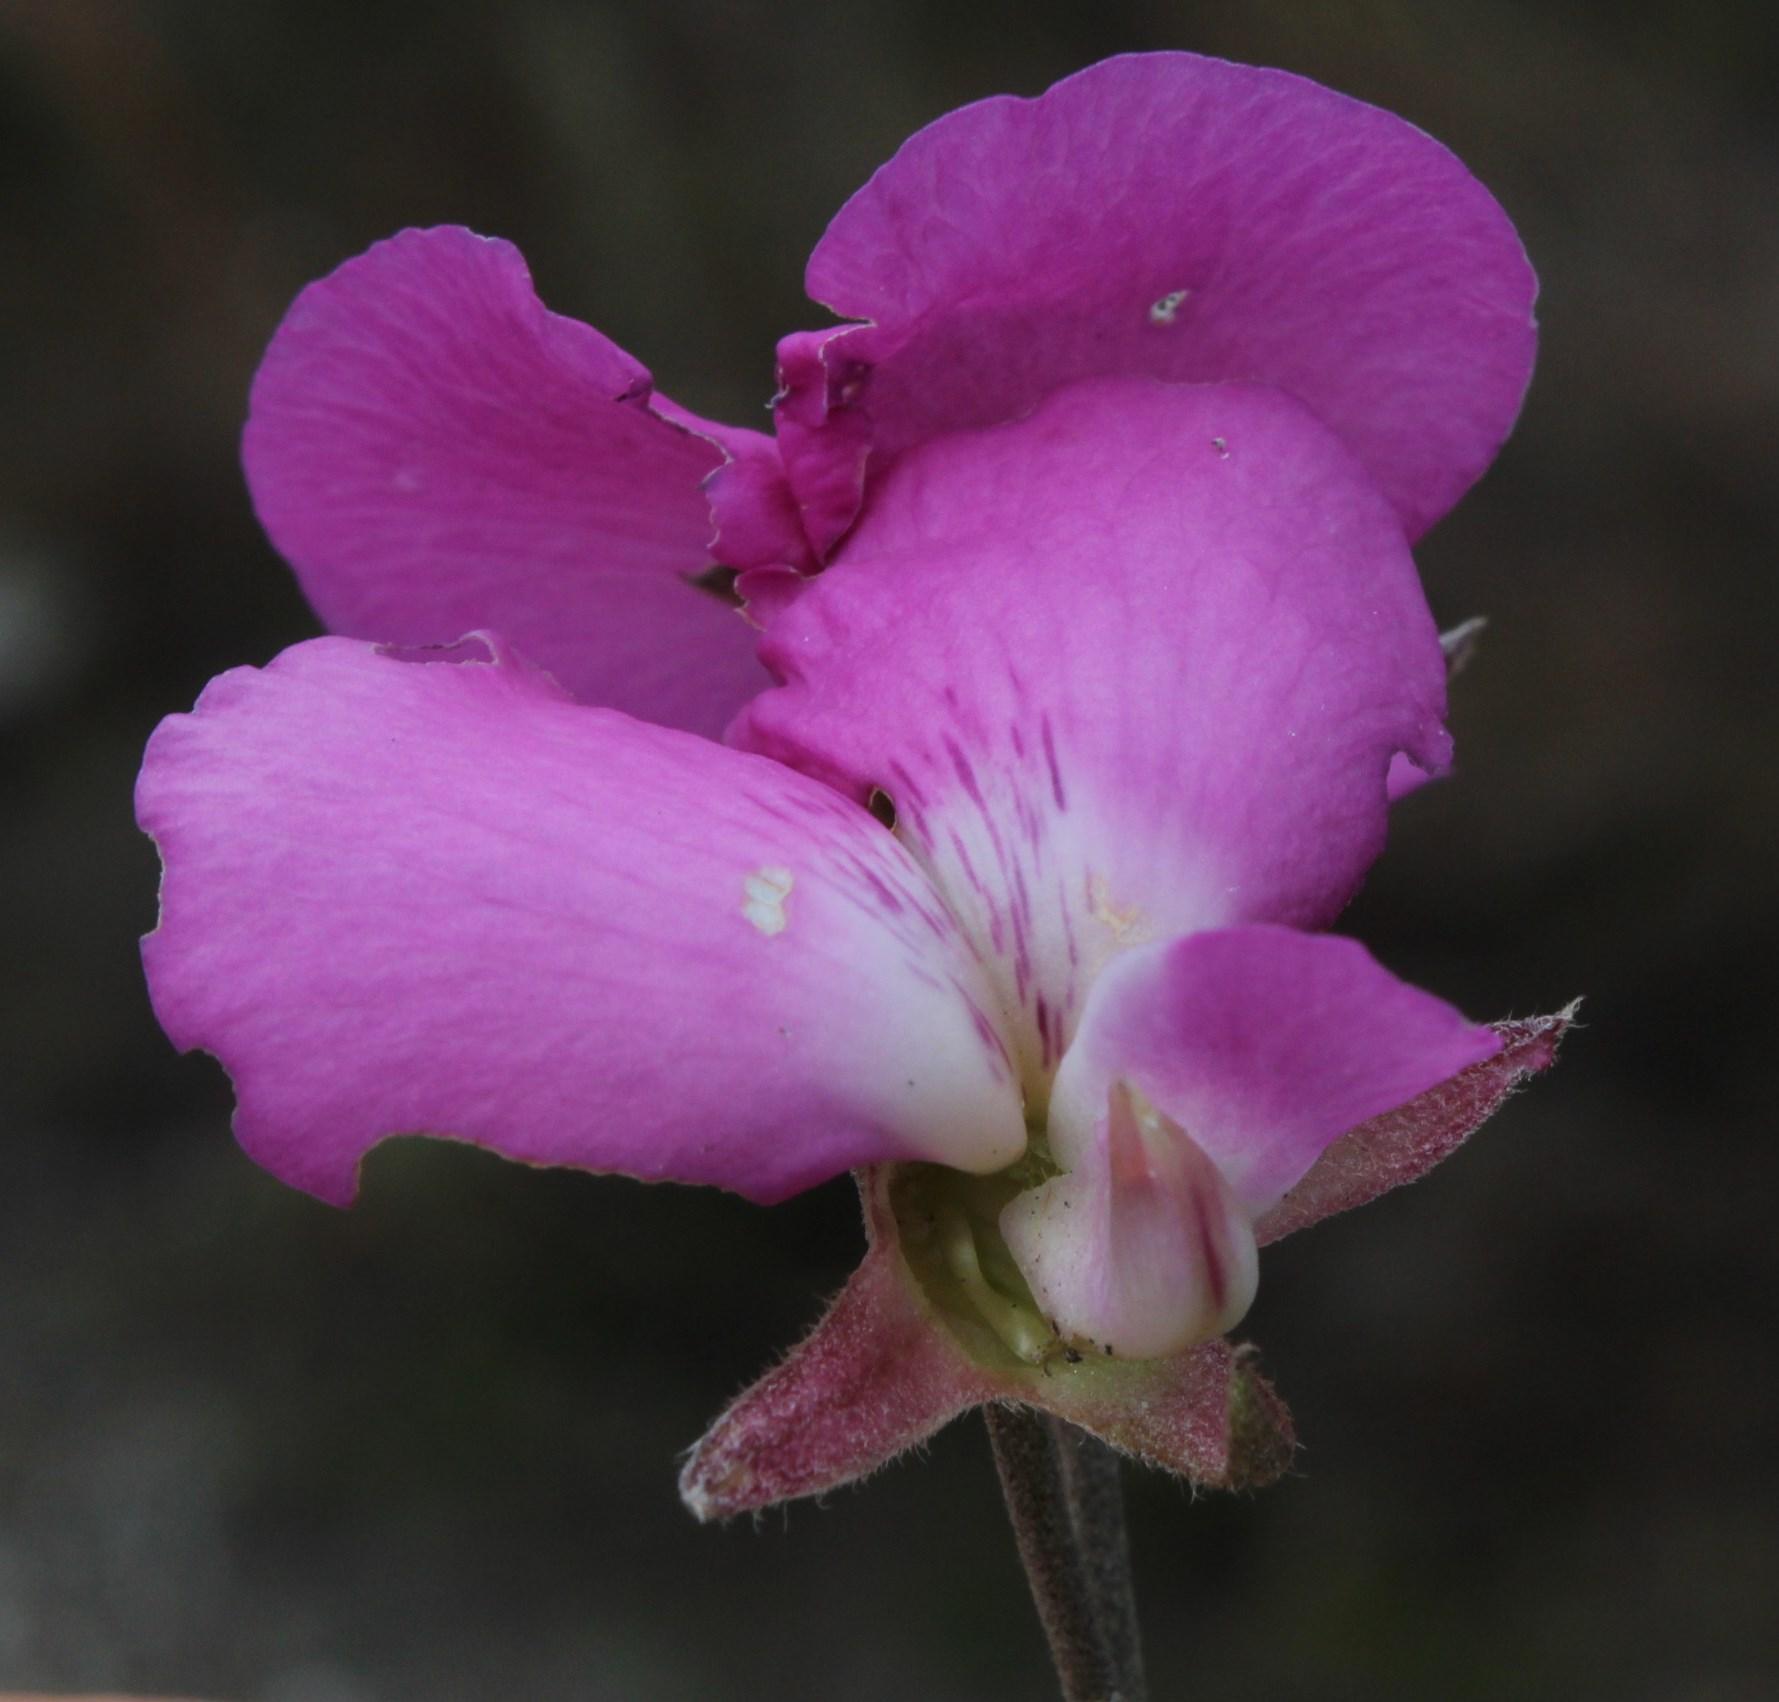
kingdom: Plantae
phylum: Tracheophyta
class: Magnoliopsida
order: Fabales
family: Fabaceae
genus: Podalyria
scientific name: Podalyria biflora
